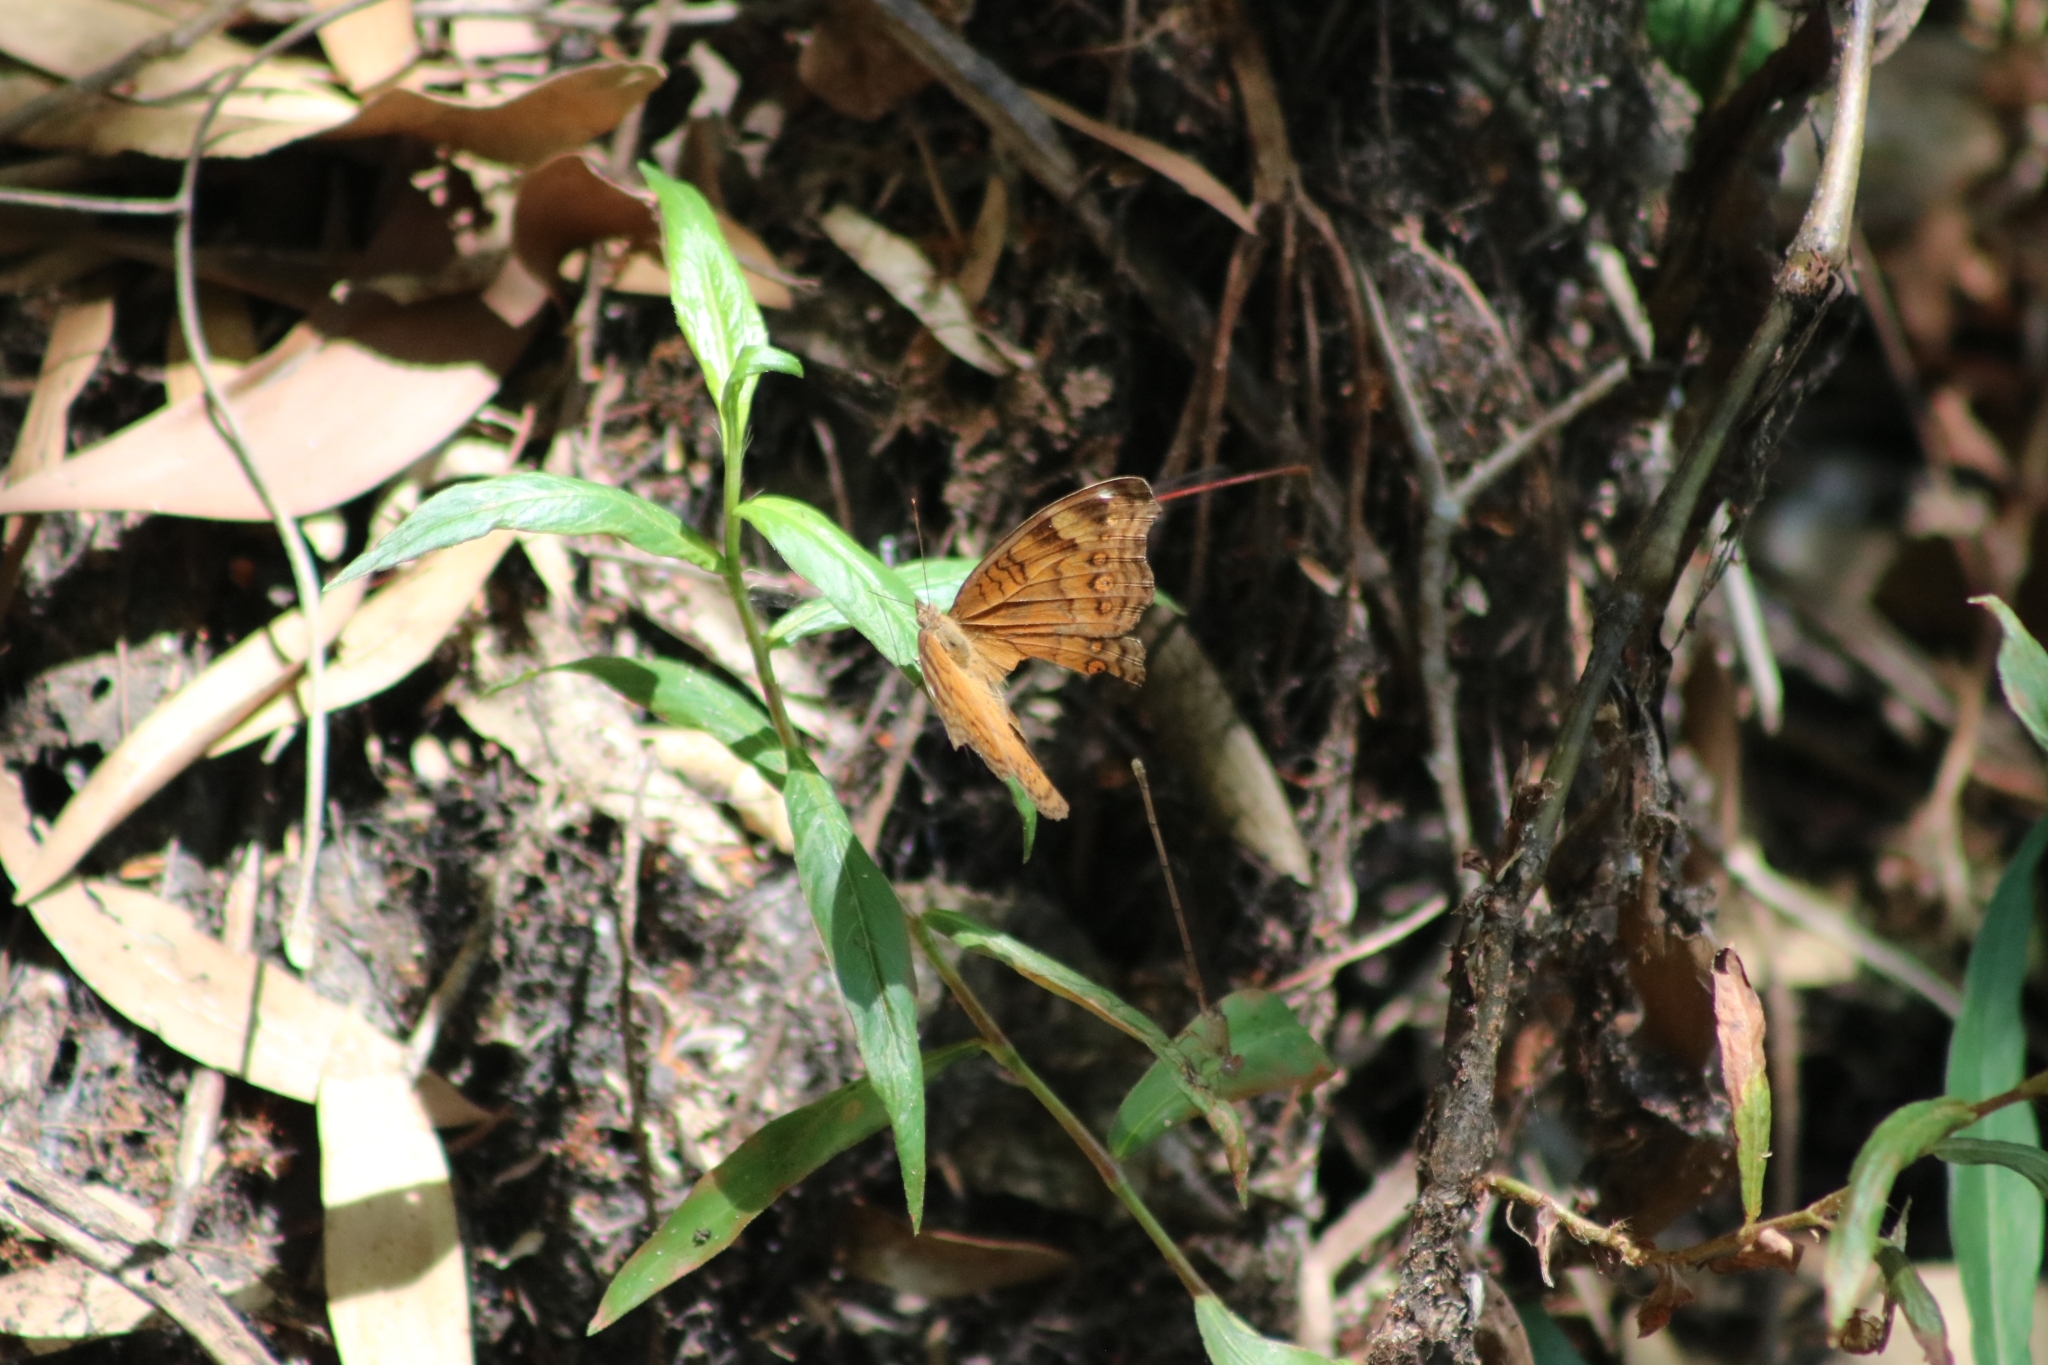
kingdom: Animalia
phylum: Arthropoda
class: Insecta
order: Lepidoptera
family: Nymphalidae
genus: Junonia
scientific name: Junonia hedonia
